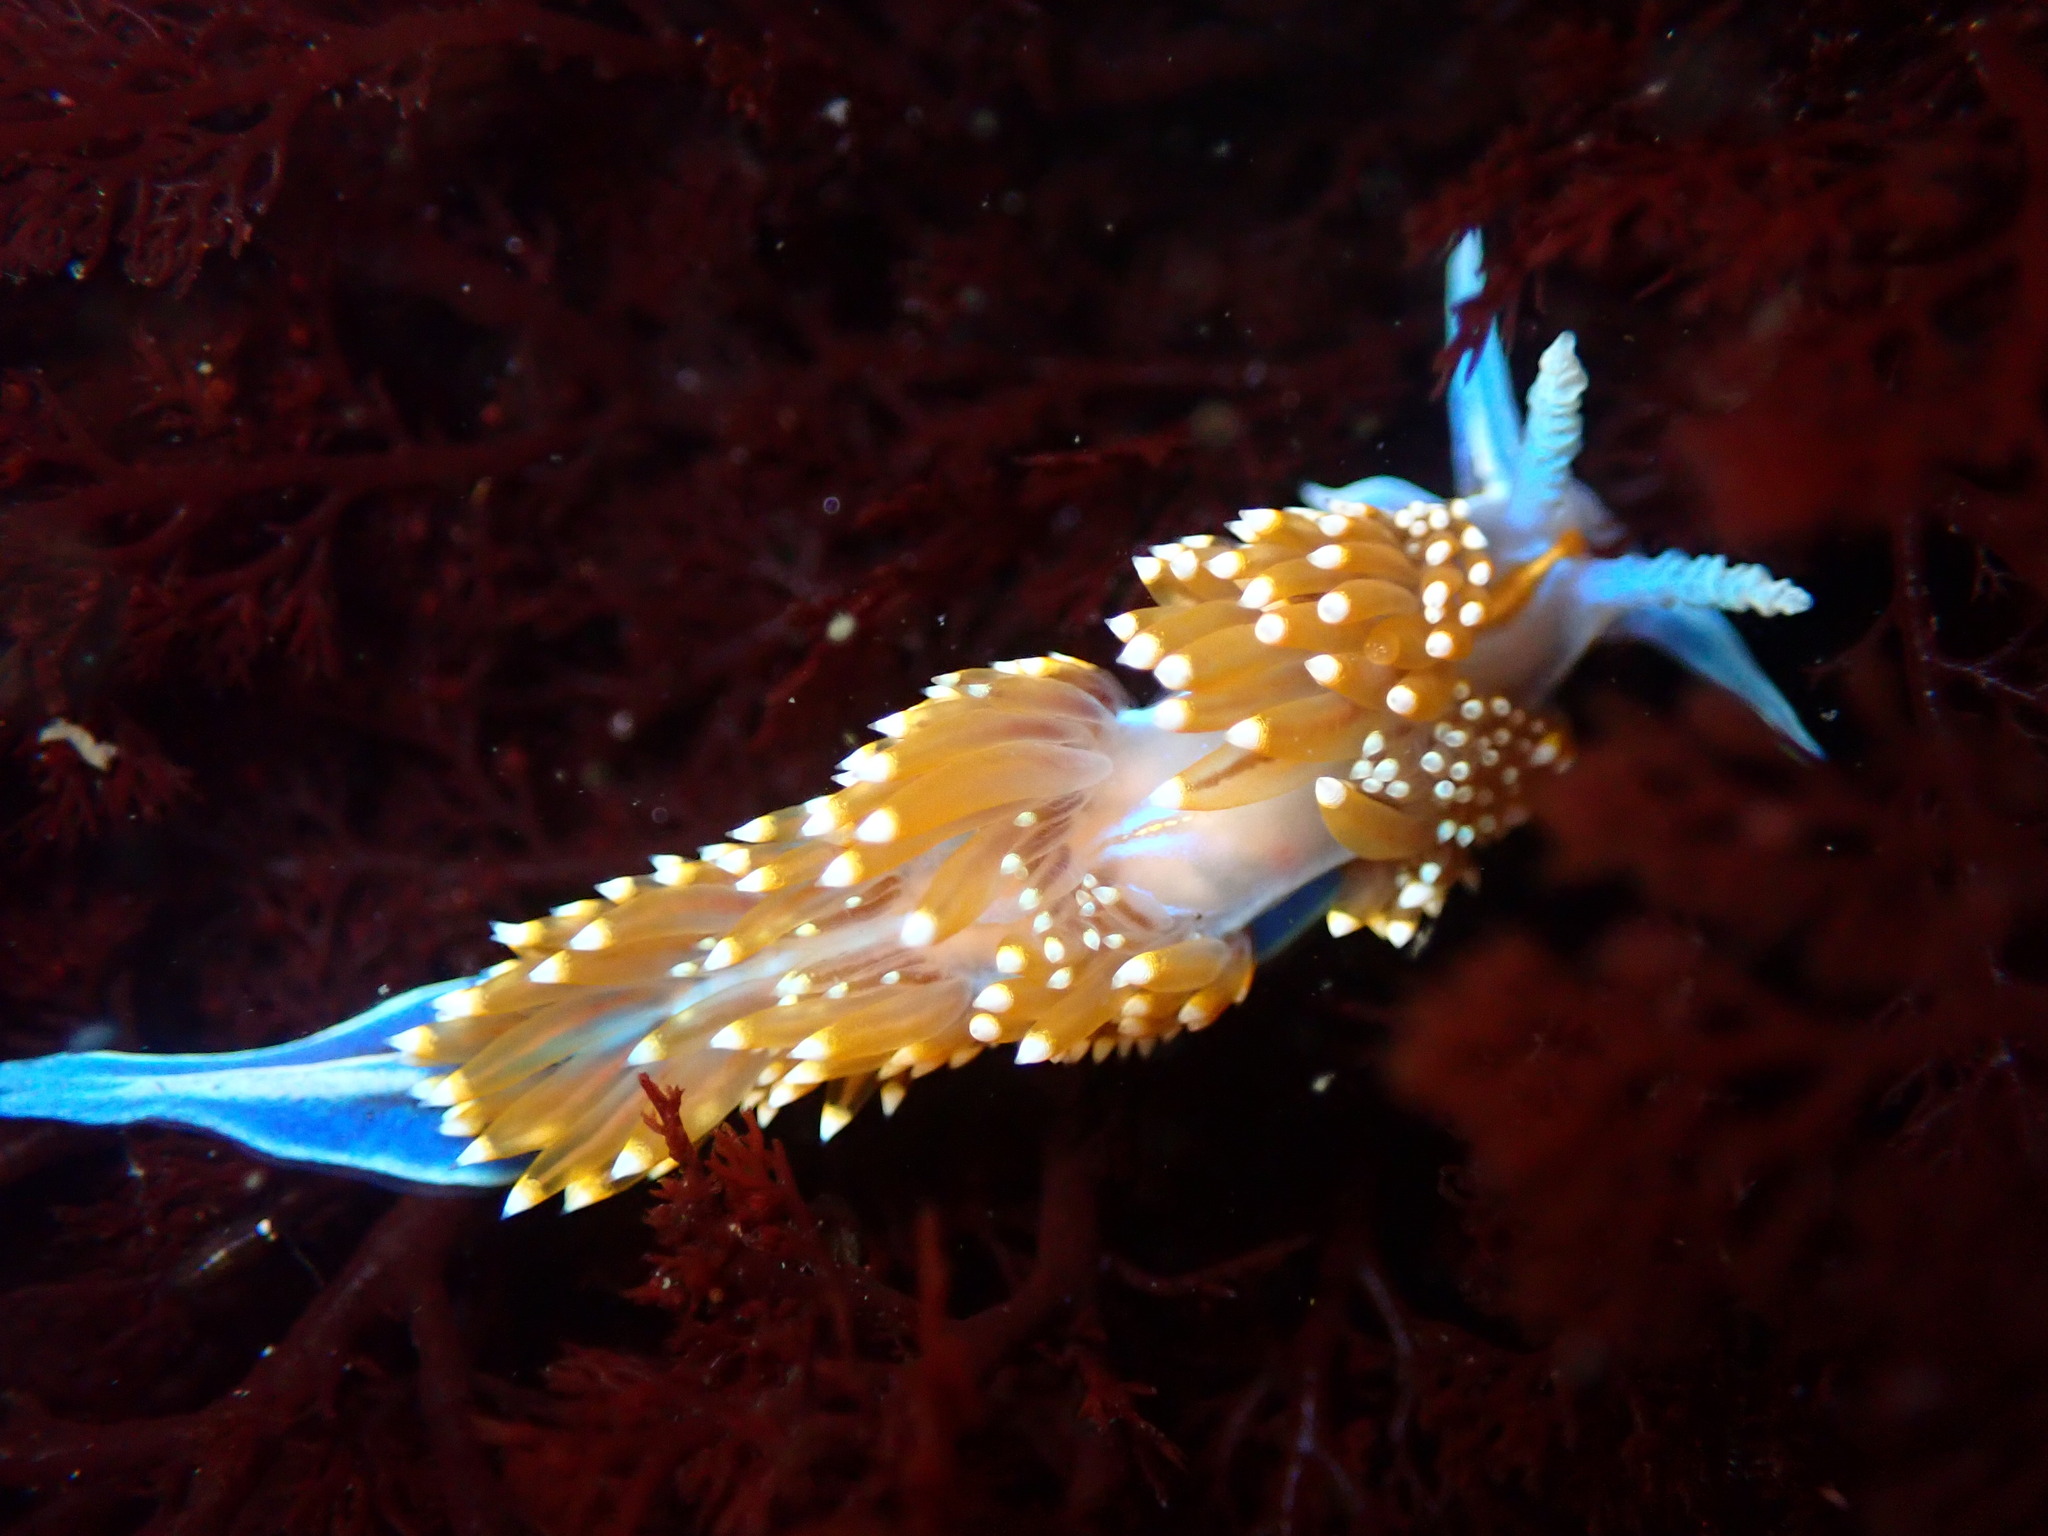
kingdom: Animalia
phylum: Mollusca
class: Gastropoda
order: Nudibranchia
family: Myrrhinidae
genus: Hermissenda
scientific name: Hermissenda opalescens
